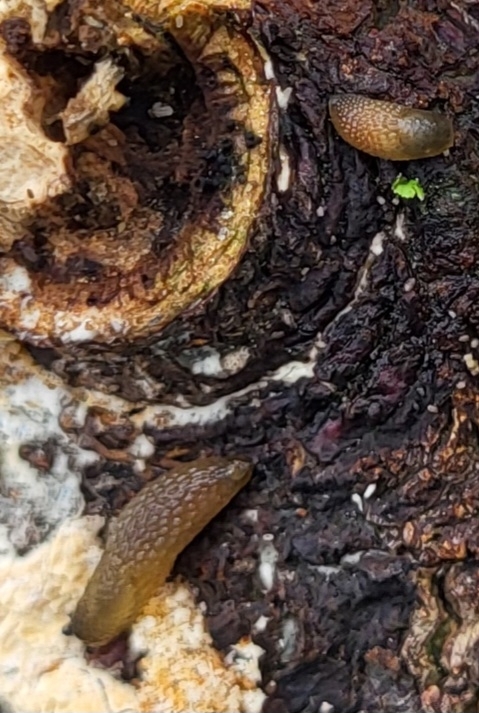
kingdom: Animalia
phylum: Mollusca
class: Gastropoda
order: Stylommatophora
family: Arionidae
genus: Arion
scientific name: Arion intermedius
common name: Hedgehog slug
